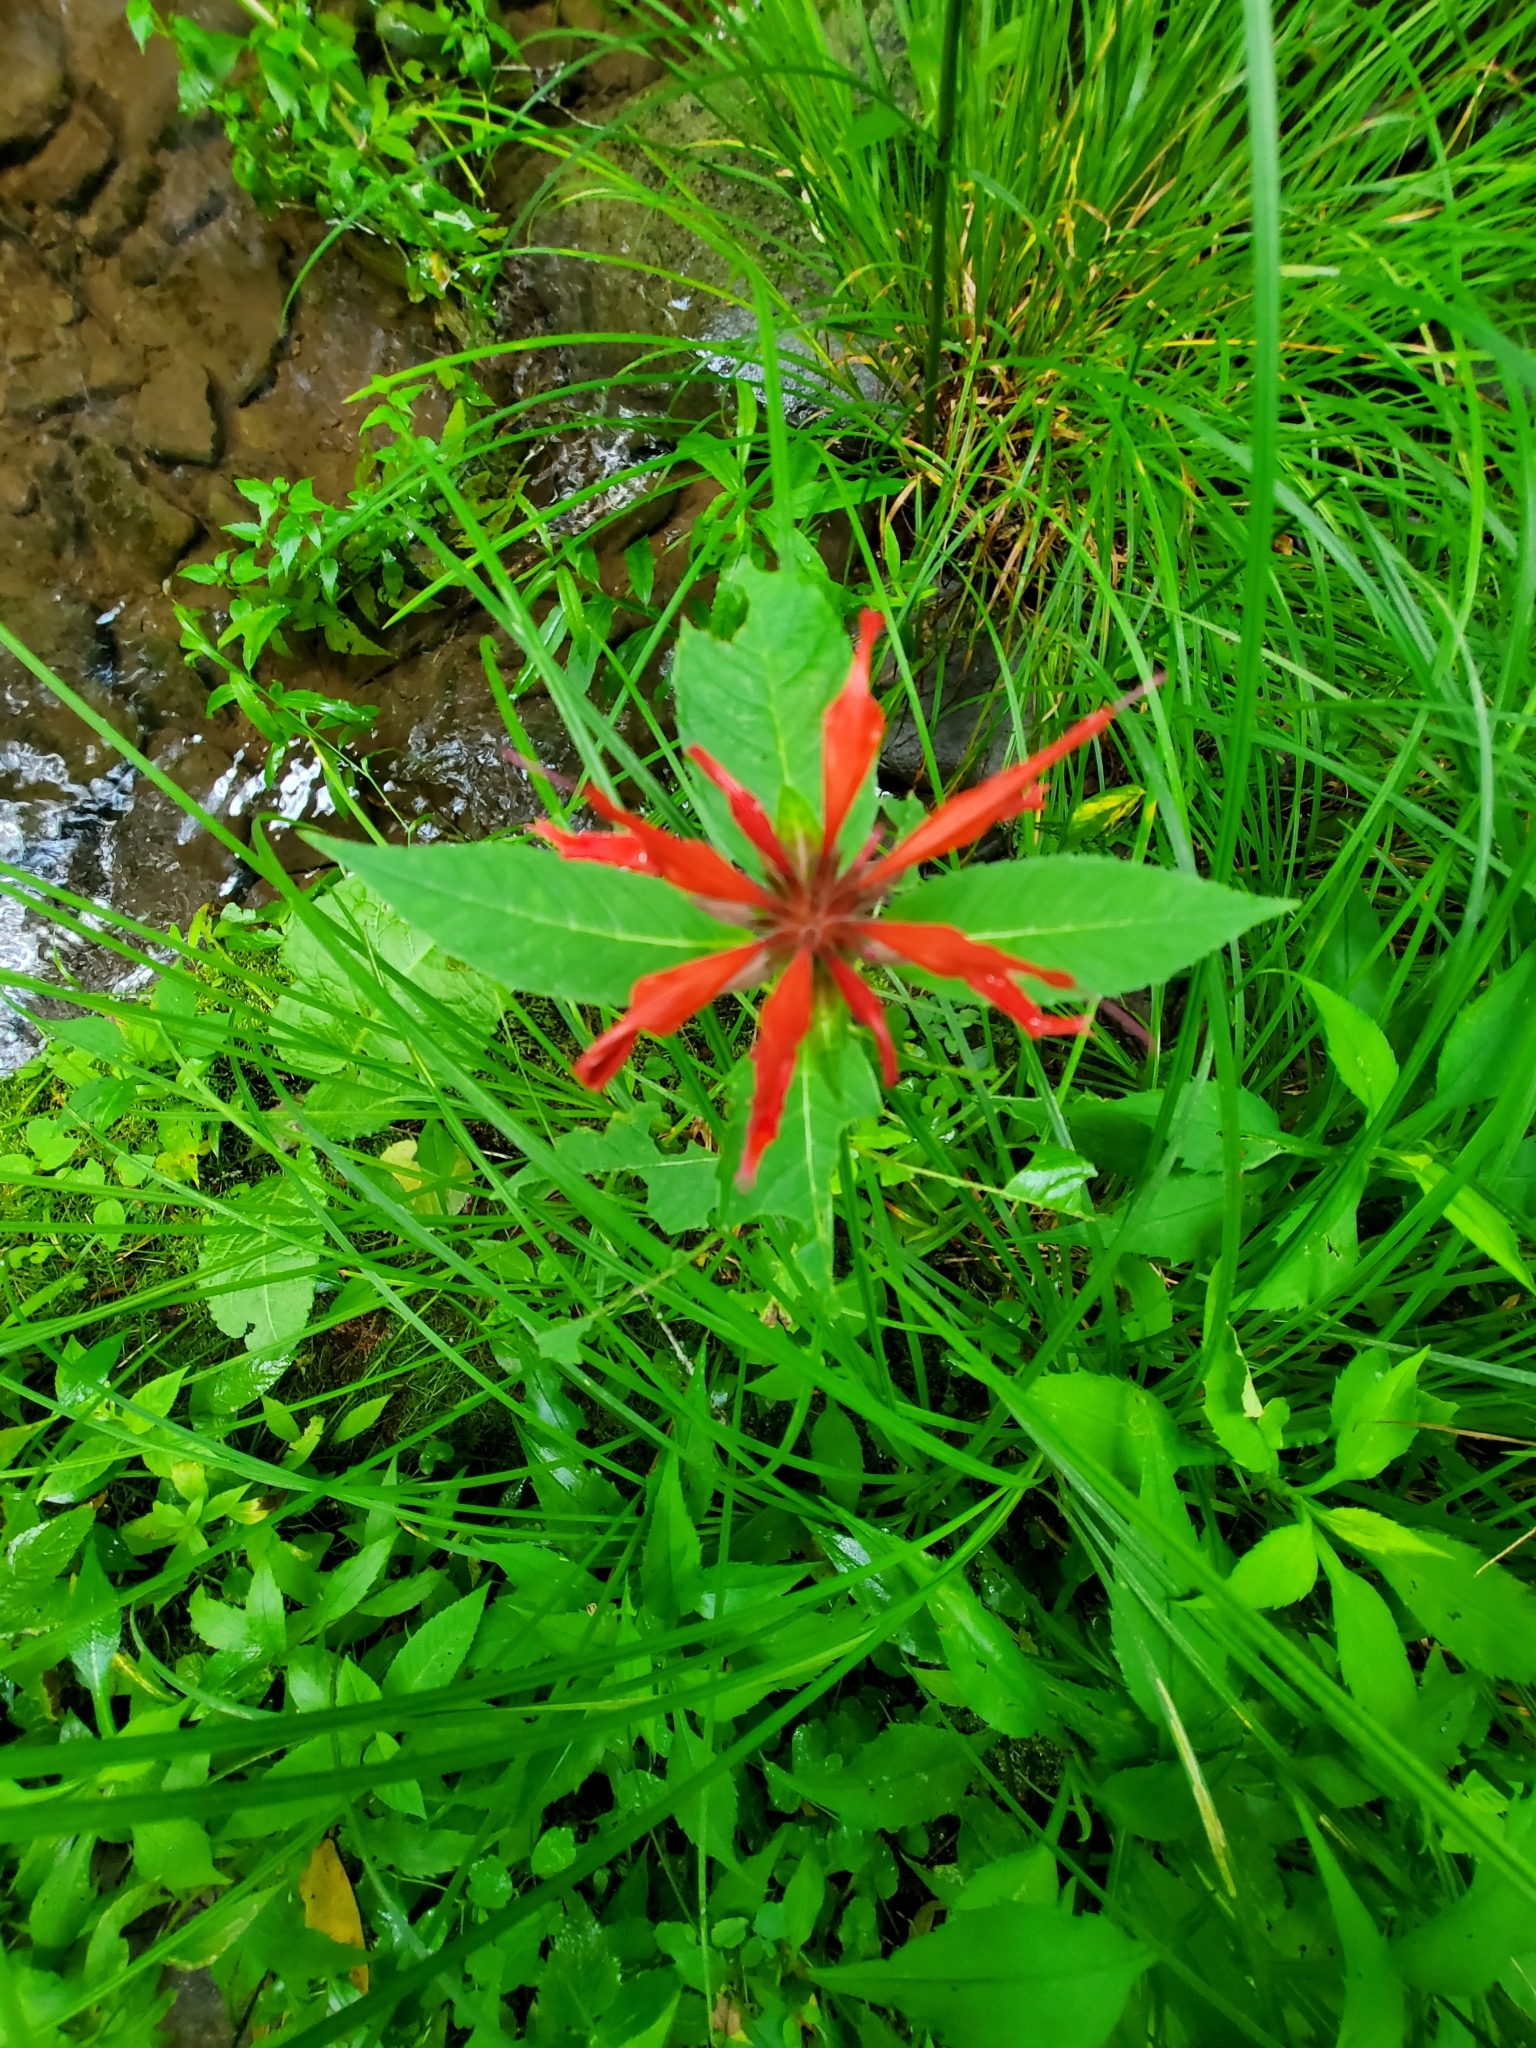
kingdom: Plantae
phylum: Tracheophyta
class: Magnoliopsida
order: Lamiales
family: Lamiaceae
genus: Monarda
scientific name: Monarda didyma
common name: Beebalm
